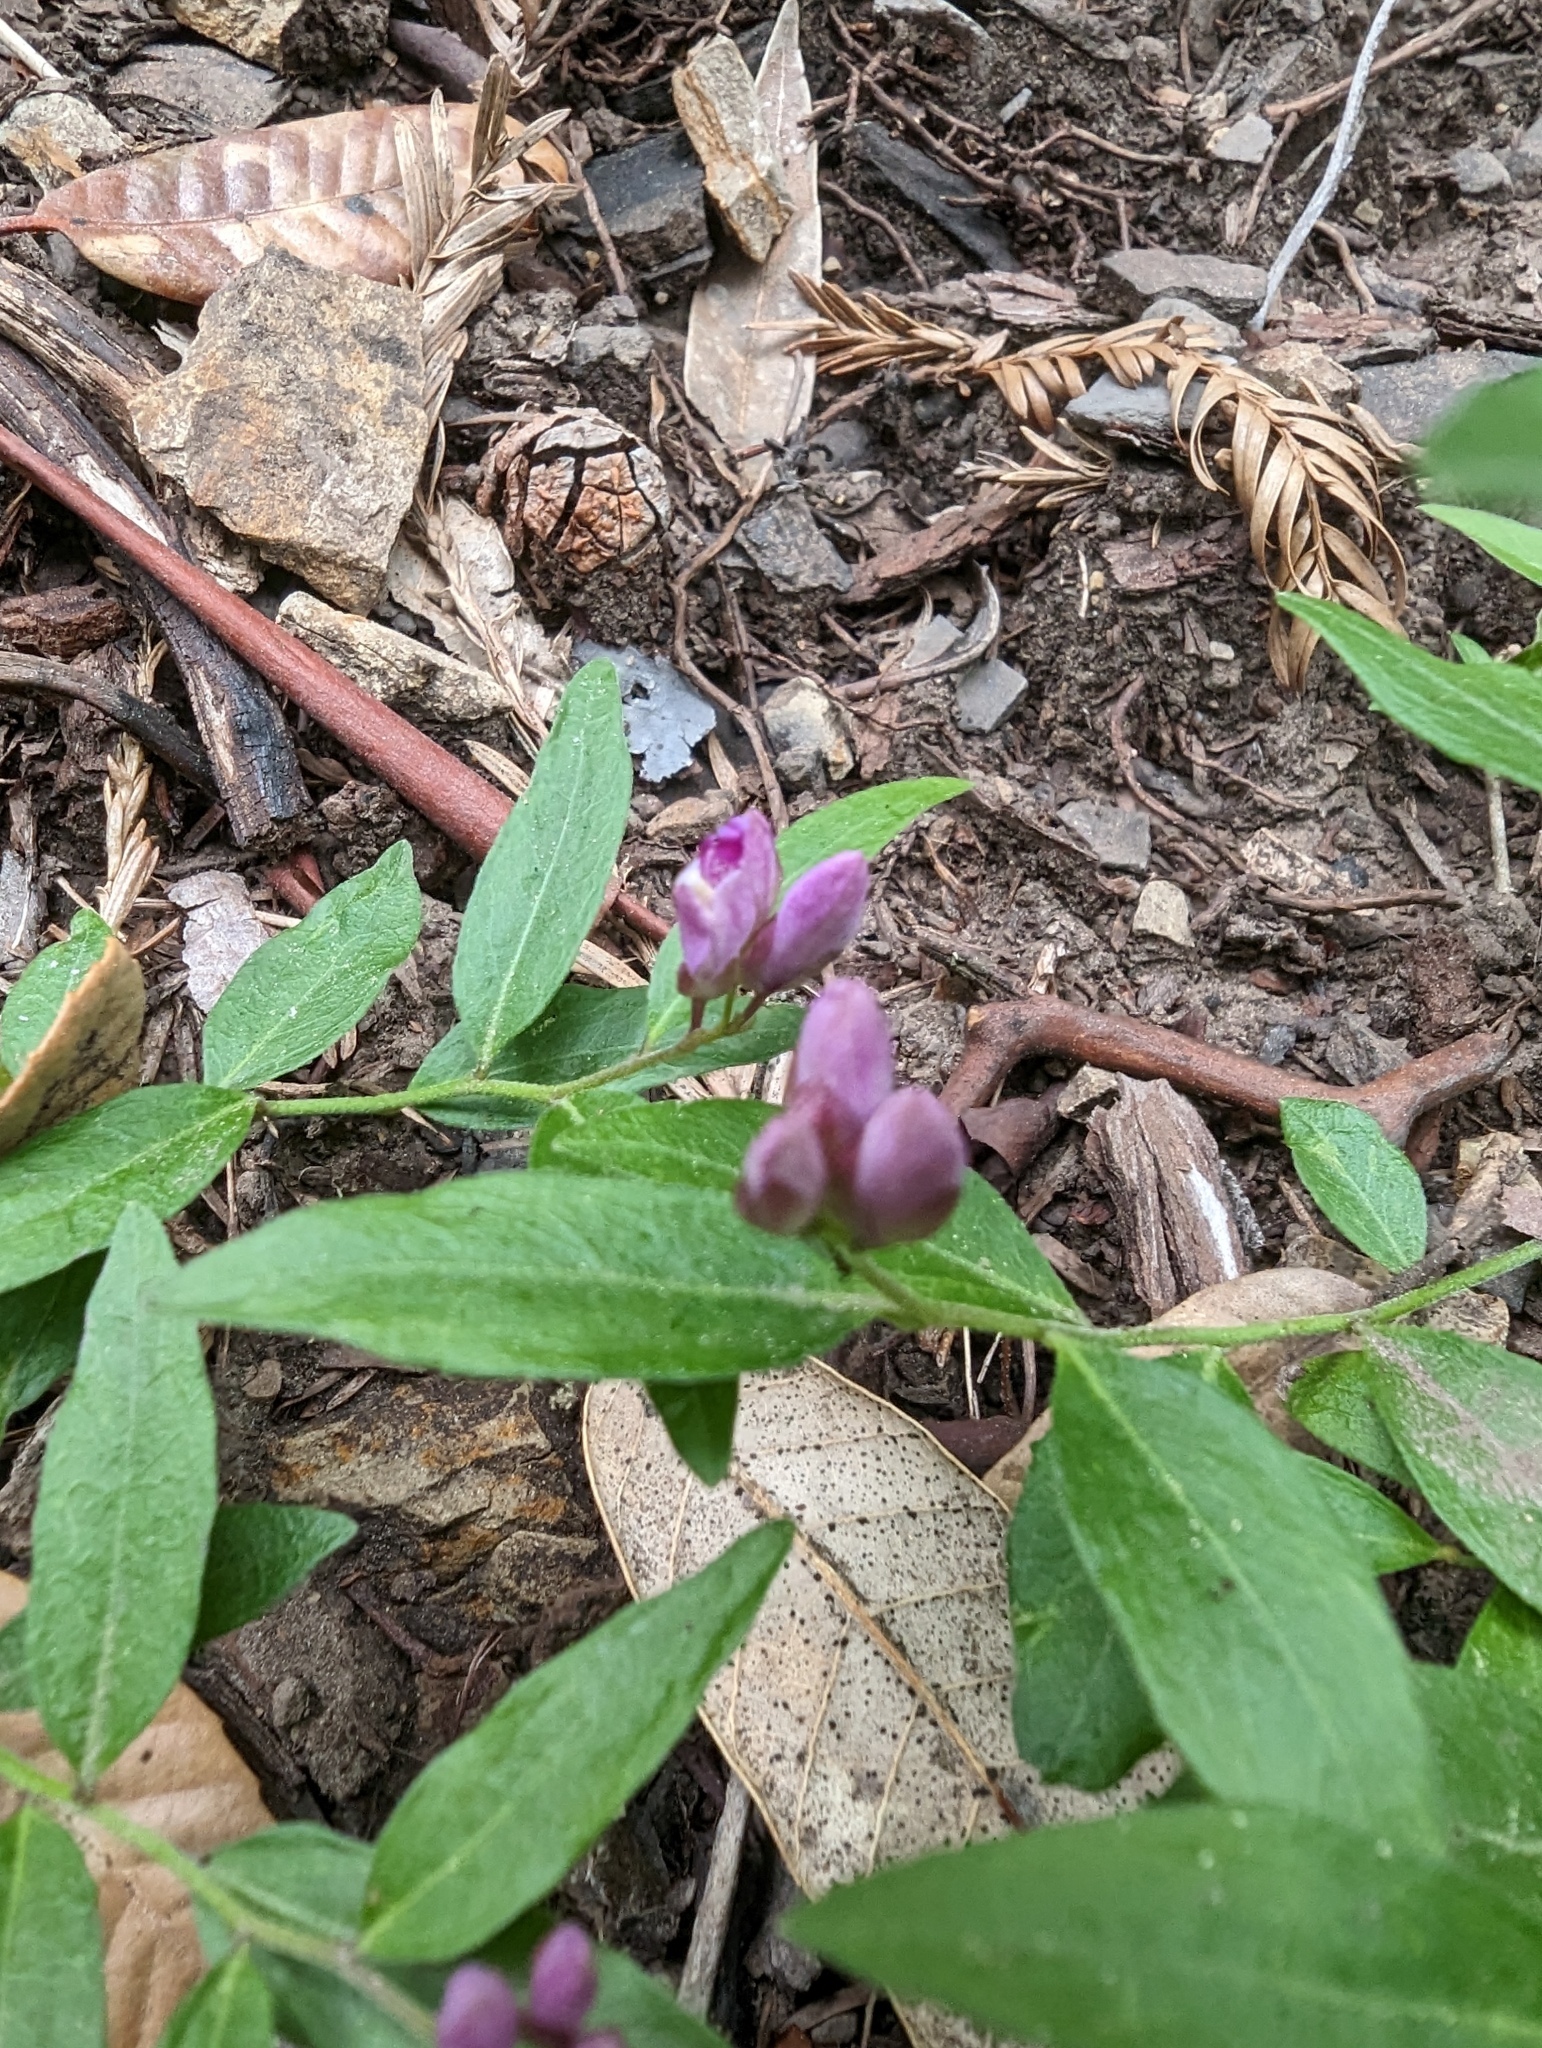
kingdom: Plantae
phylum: Tracheophyta
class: Magnoliopsida
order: Fabales
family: Polygalaceae
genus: Rhinotropis
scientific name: Rhinotropis californica
